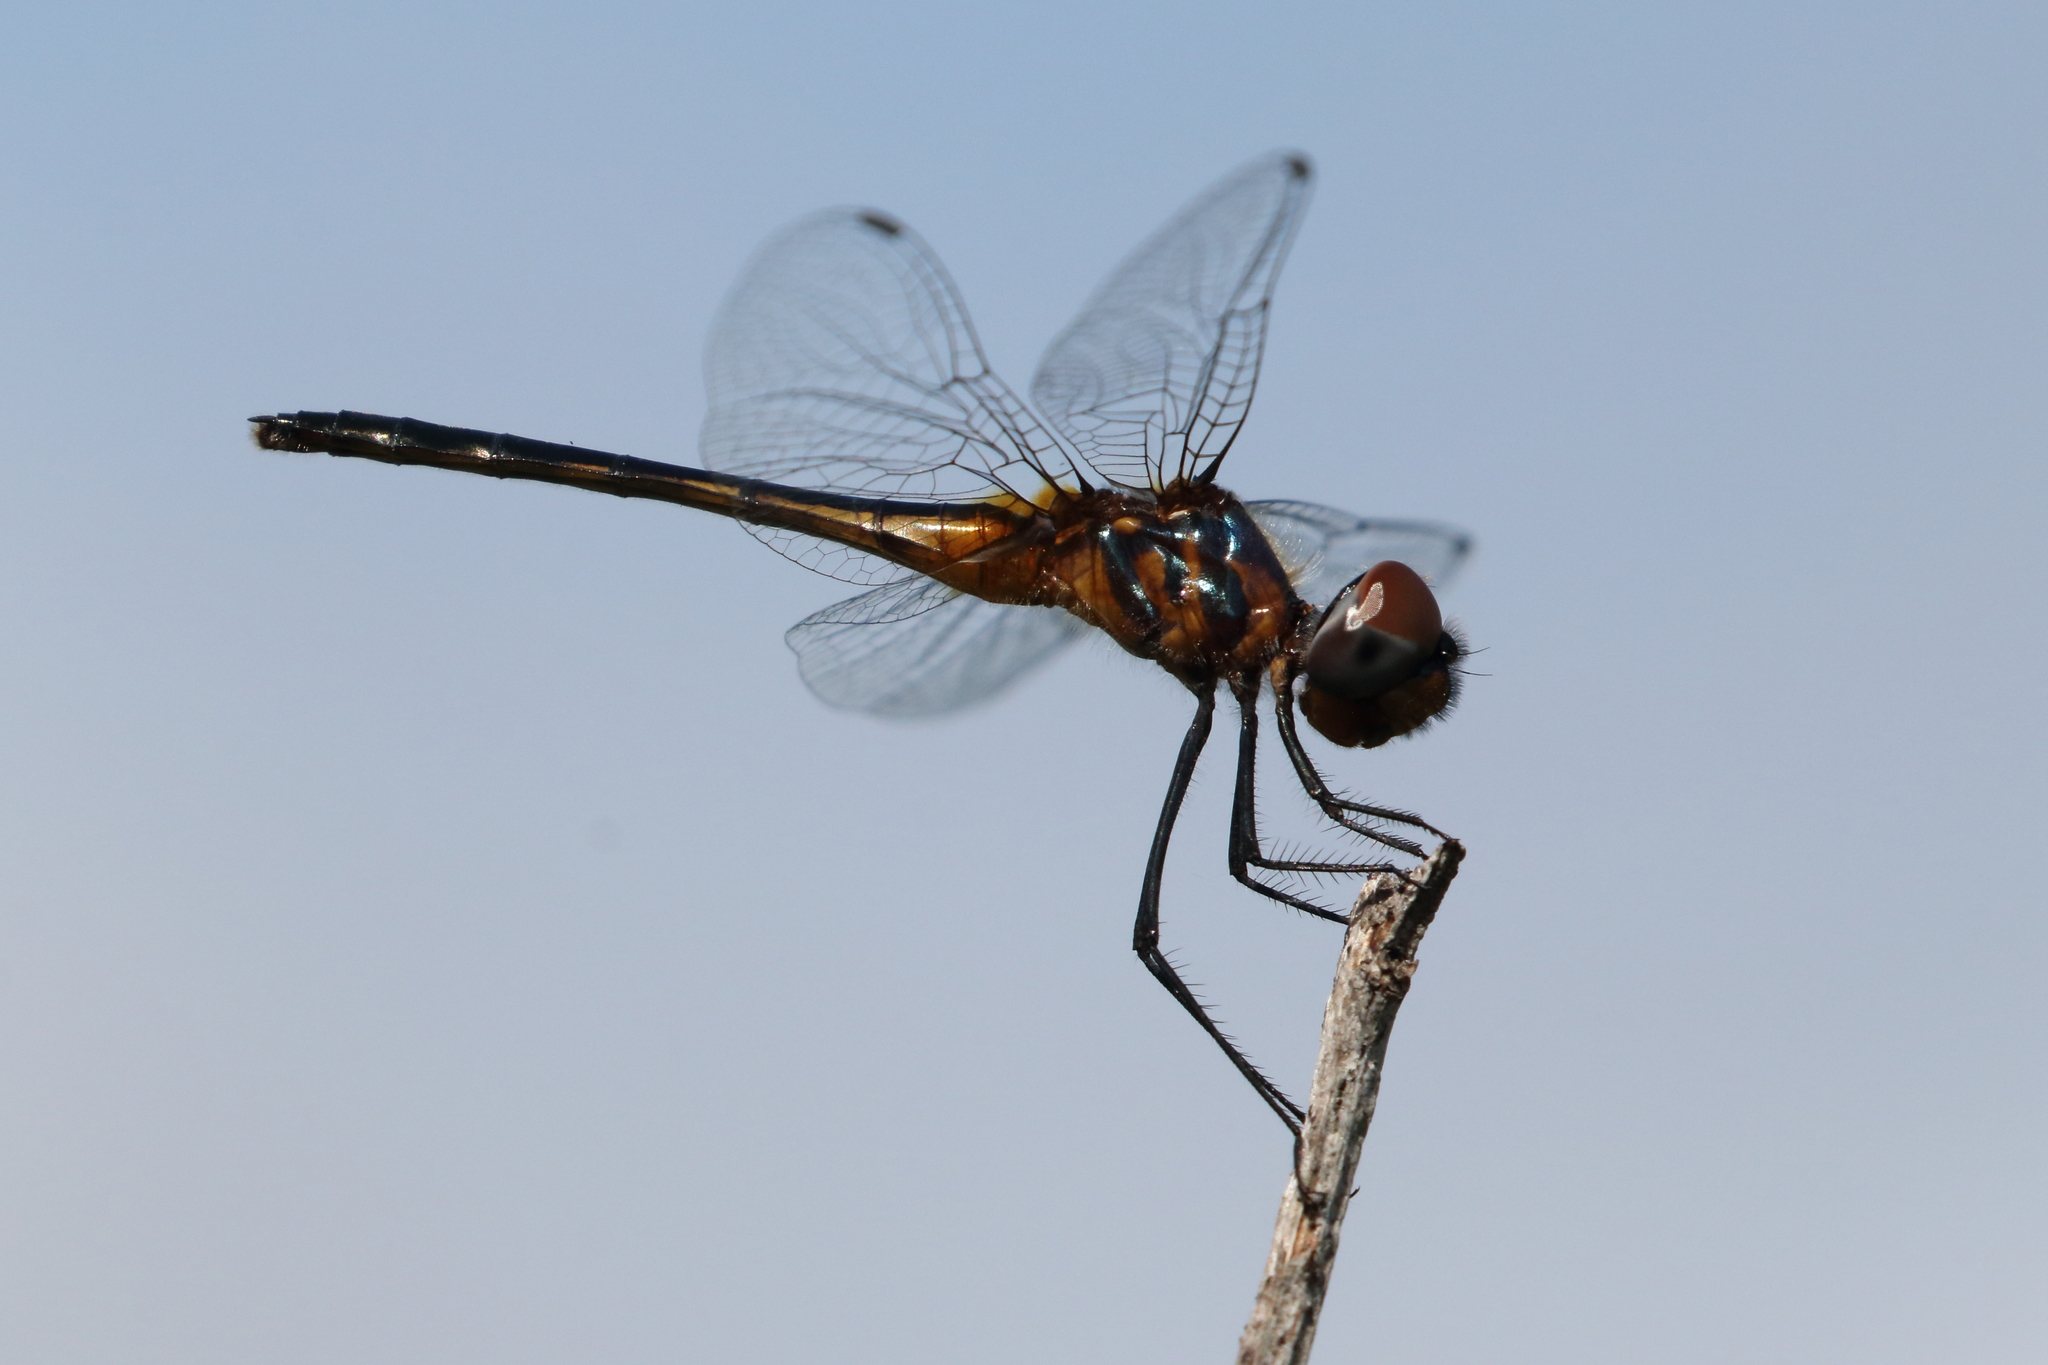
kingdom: Animalia
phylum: Arthropoda
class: Insecta
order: Odonata
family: Libellulidae
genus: Idiataphe
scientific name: Idiataphe cubensis
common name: Metallic pennant
